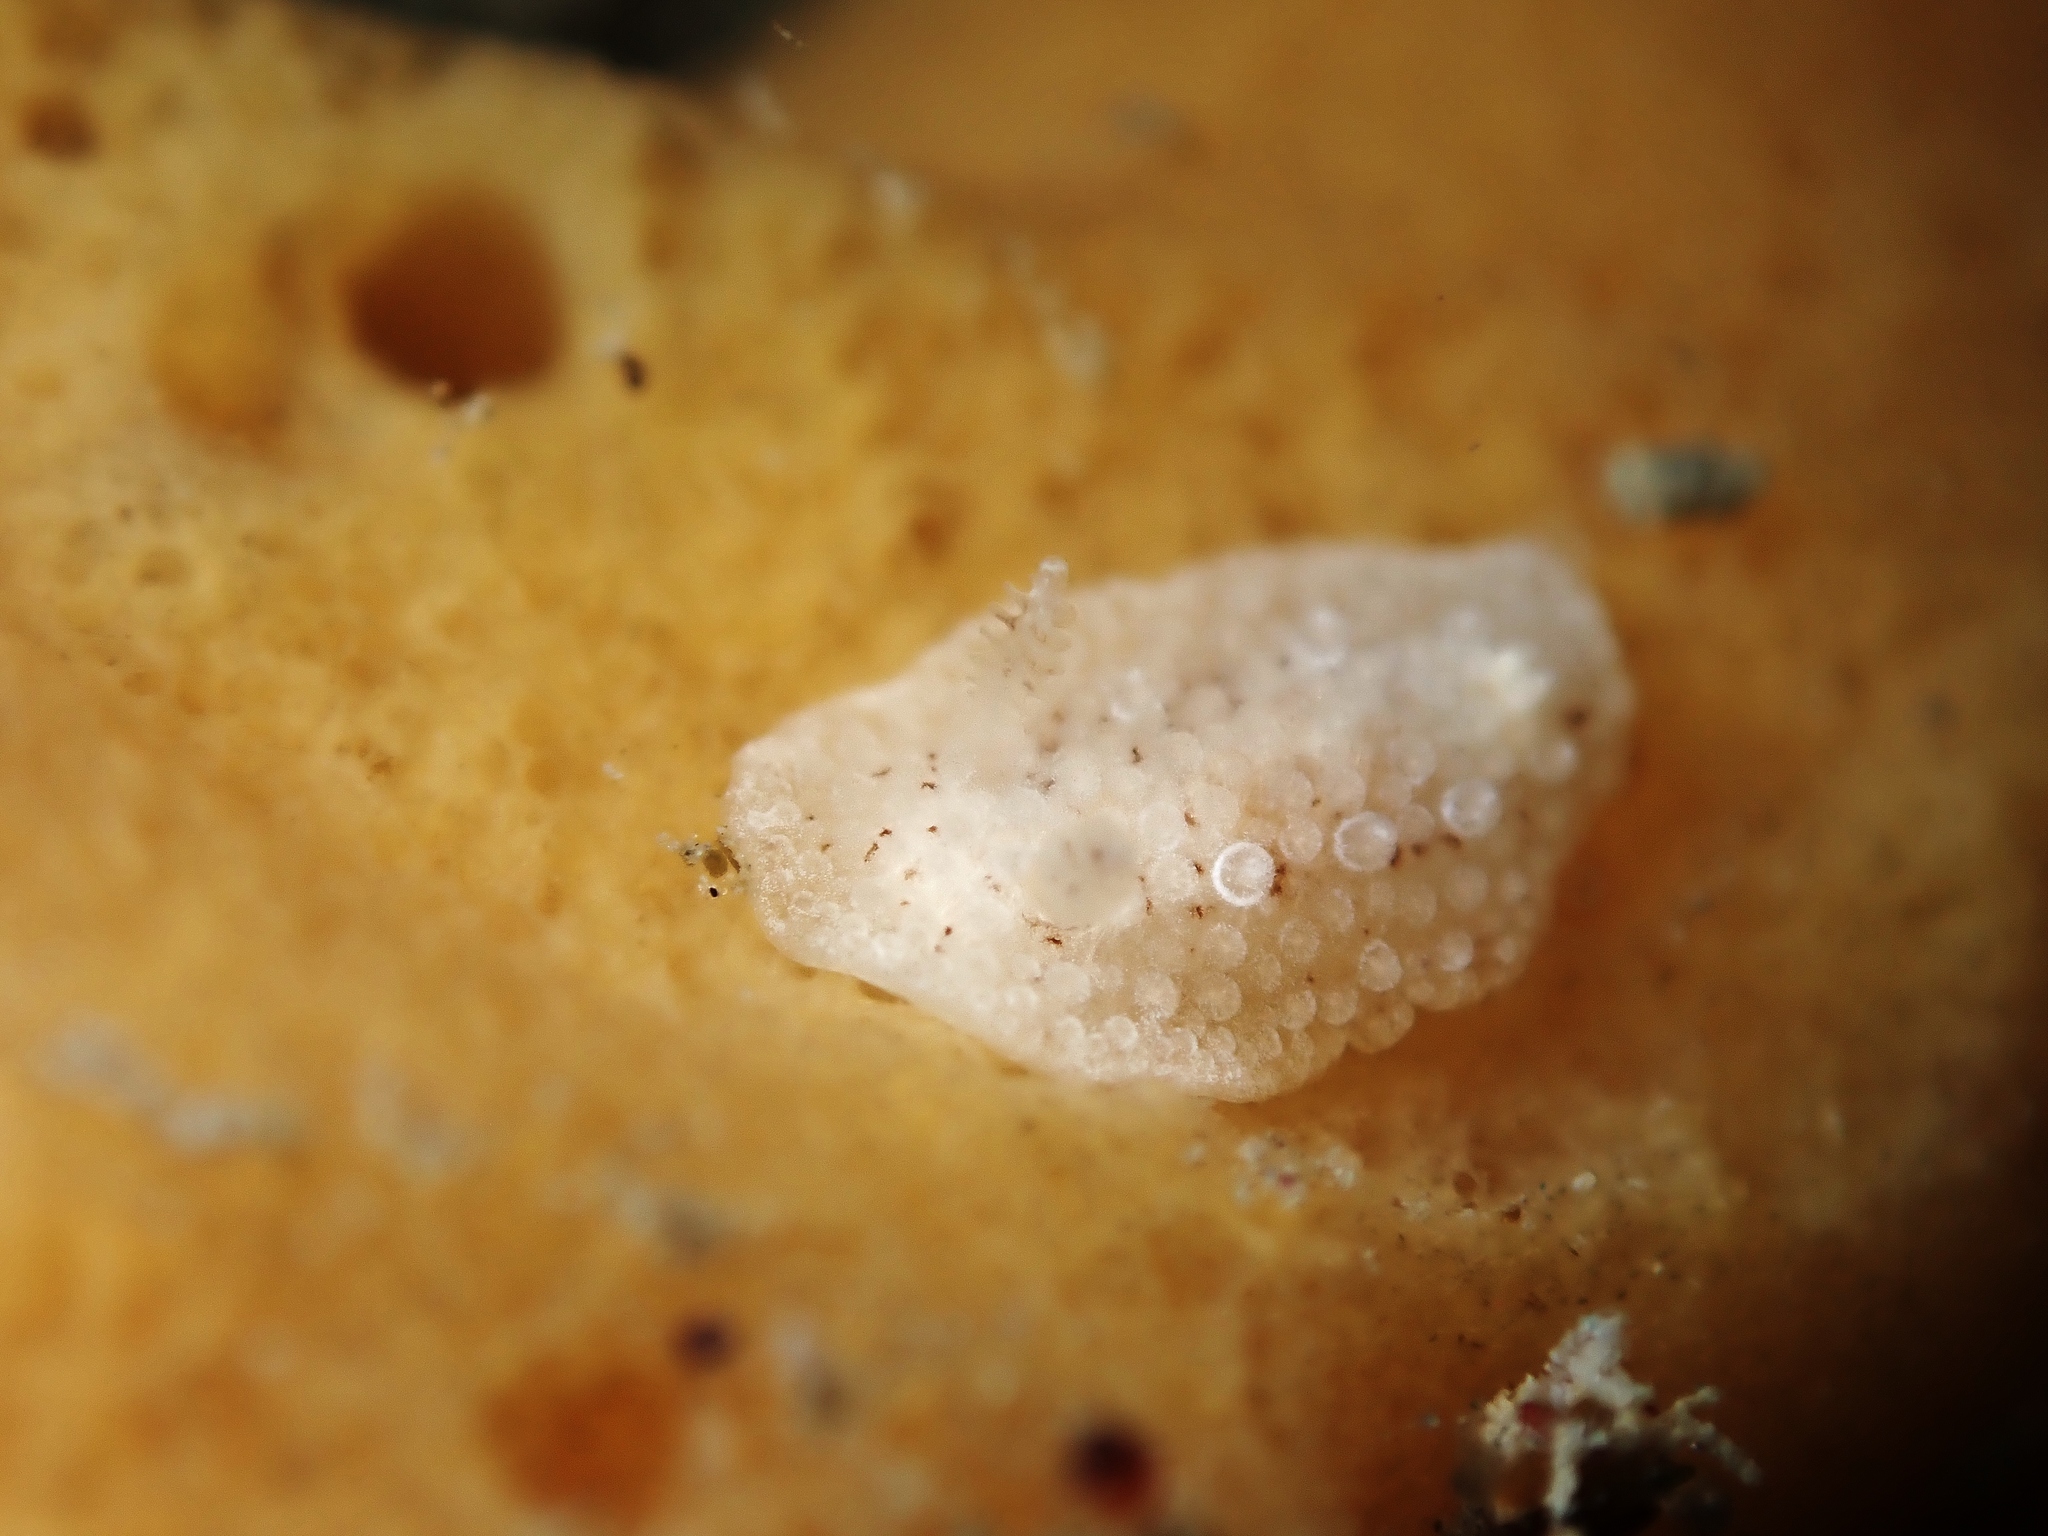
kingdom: Animalia
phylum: Mollusca
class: Gastropoda
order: Nudibranchia
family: Discodorididae
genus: Carminodoris
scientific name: Carminodoris nodulosa
